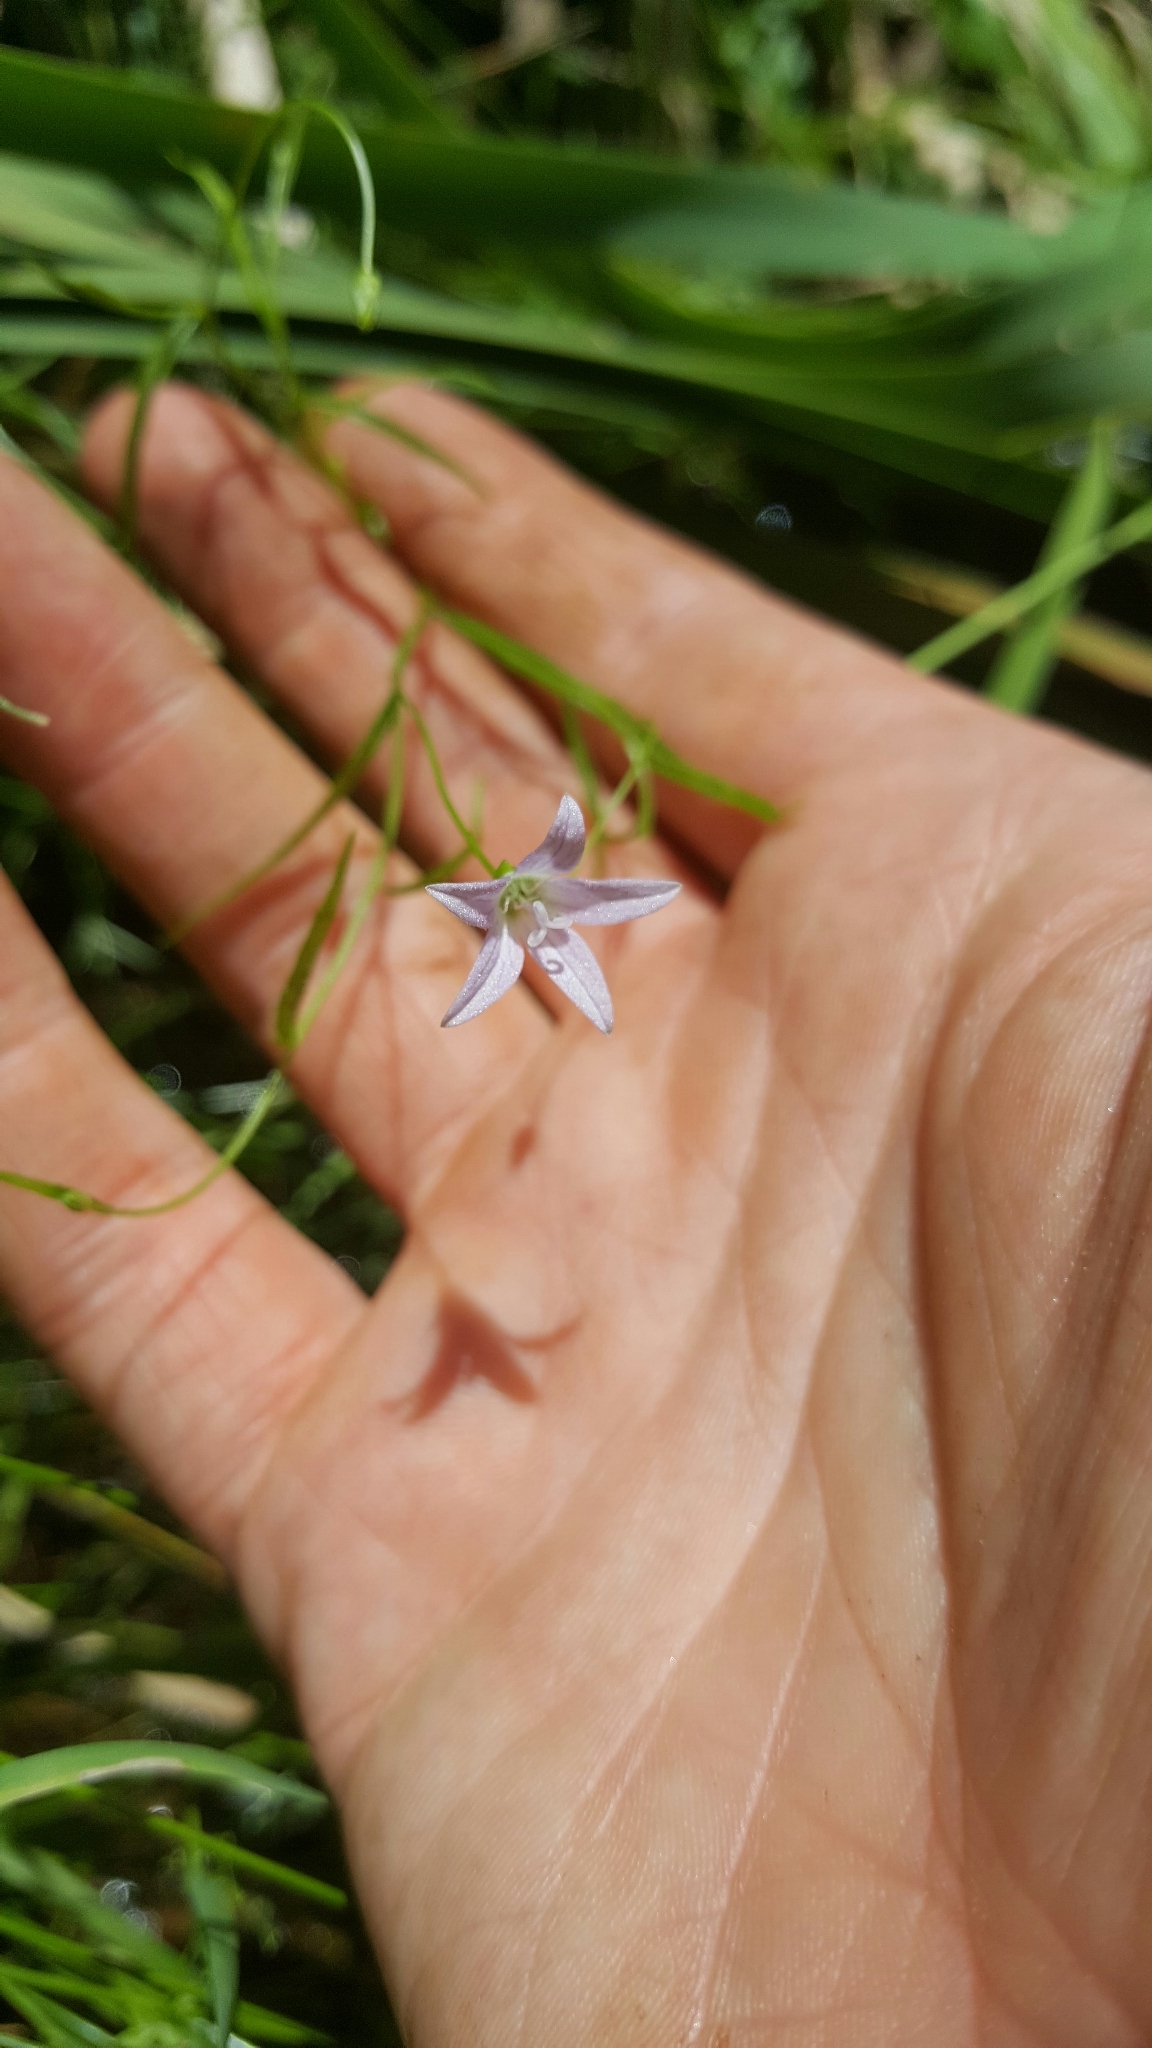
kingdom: Plantae
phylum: Tracheophyta
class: Magnoliopsida
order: Asterales
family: Campanulaceae
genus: Palustricodon
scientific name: Palustricodon aparinoides
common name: Bedstraw bellflower
